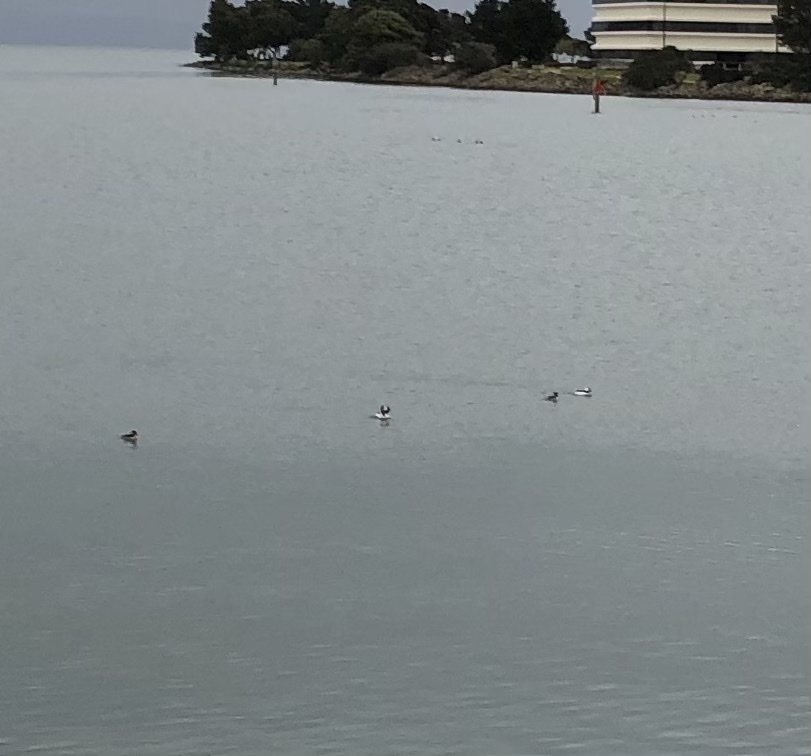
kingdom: Animalia
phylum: Chordata
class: Aves
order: Anseriformes
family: Anatidae
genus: Bucephala
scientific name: Bucephala albeola
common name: Bufflehead
